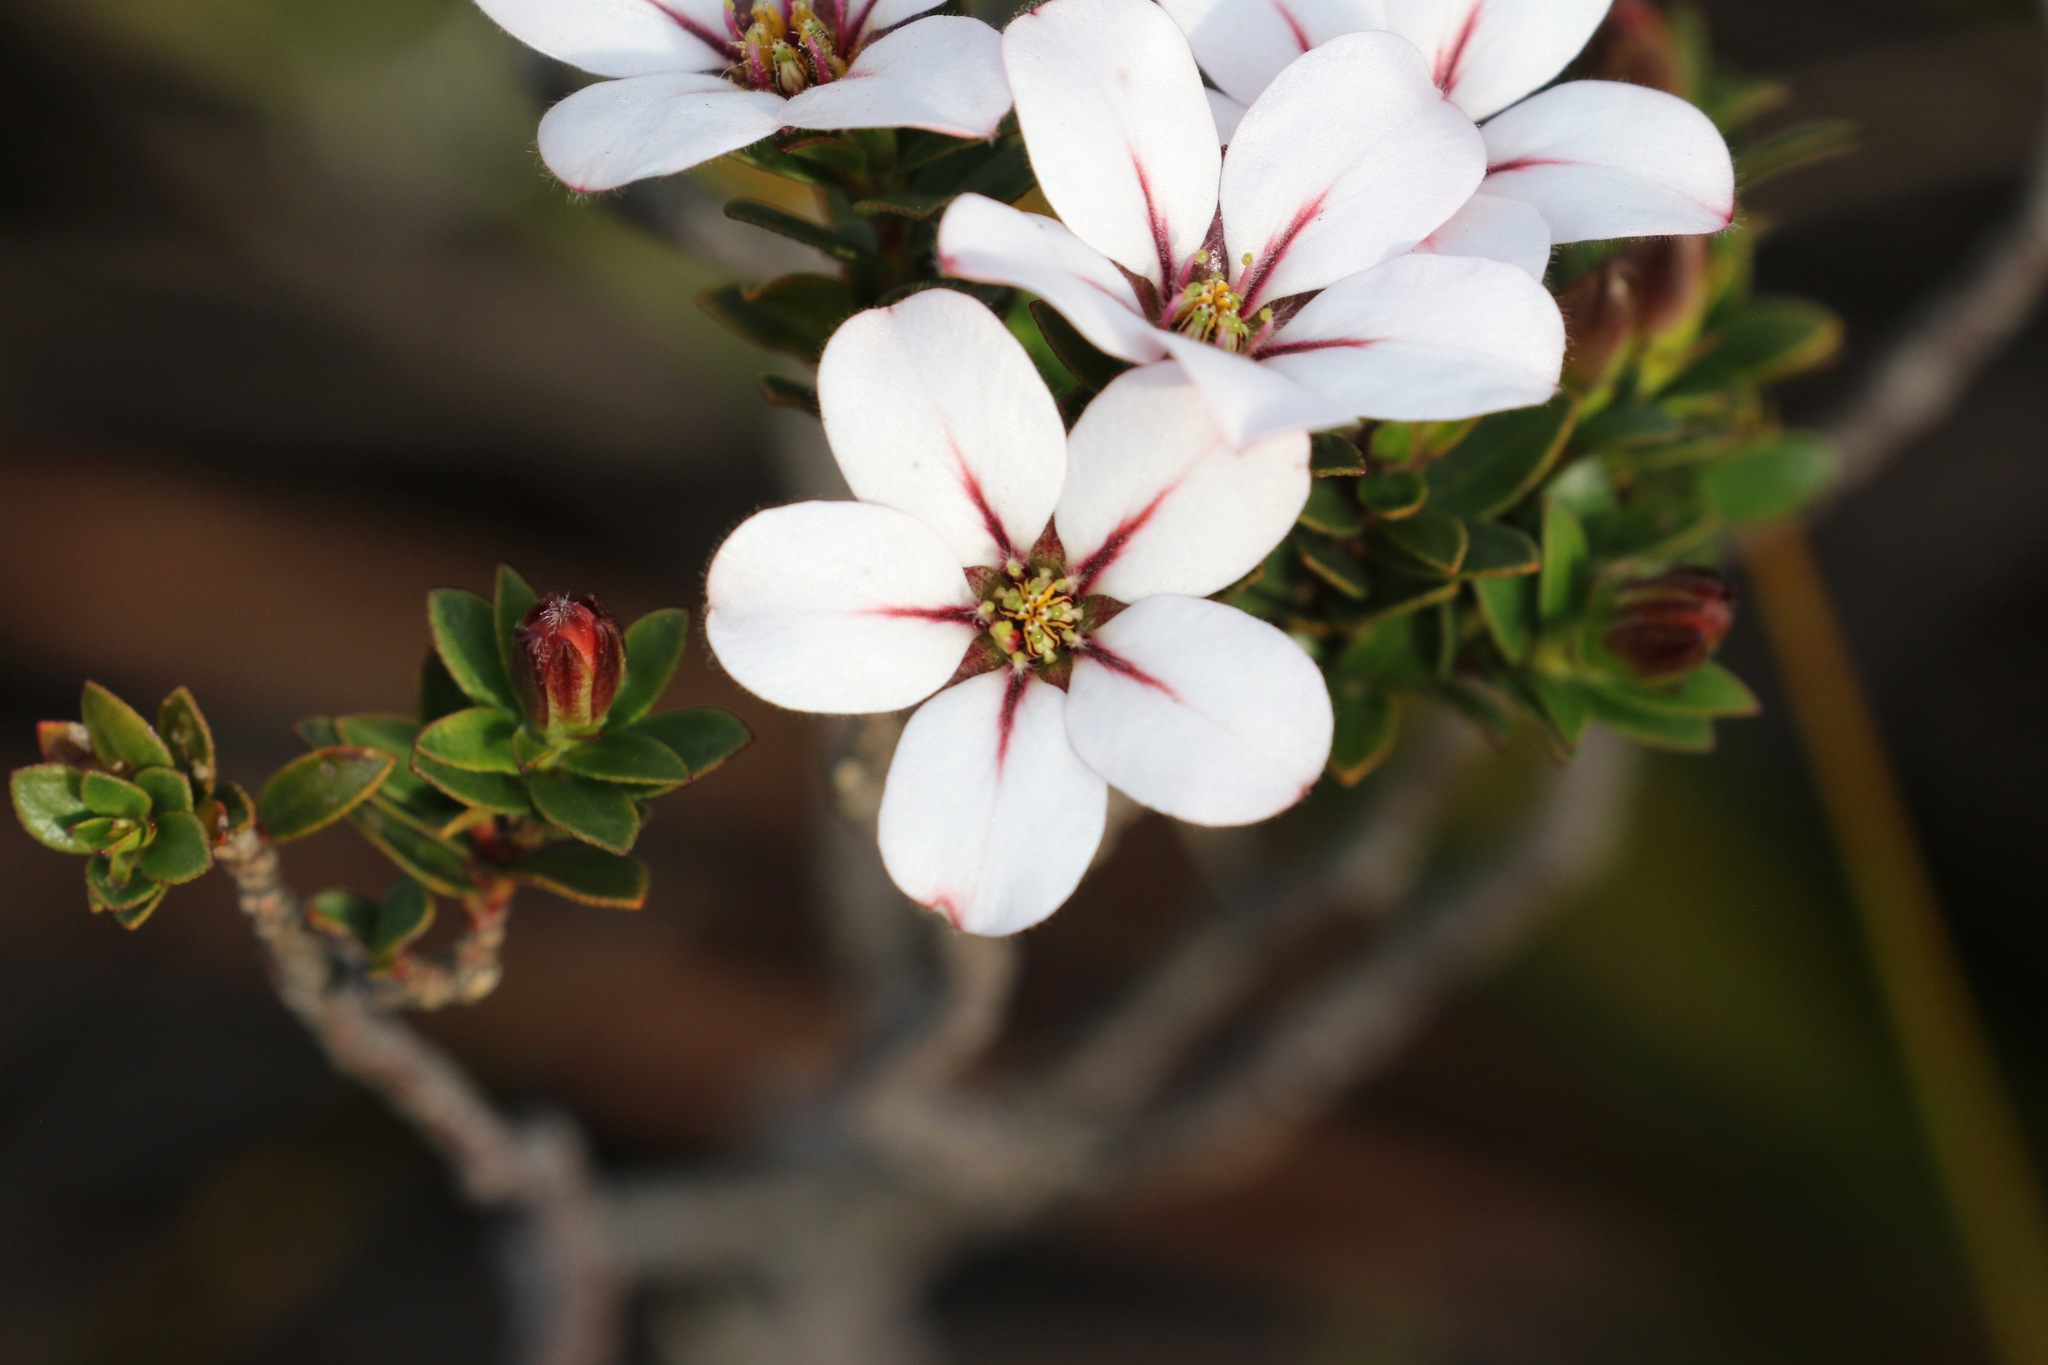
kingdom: Plantae
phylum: Tracheophyta
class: Magnoliopsida
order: Sapindales
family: Rutaceae
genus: Adenandra
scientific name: Adenandra villosa
